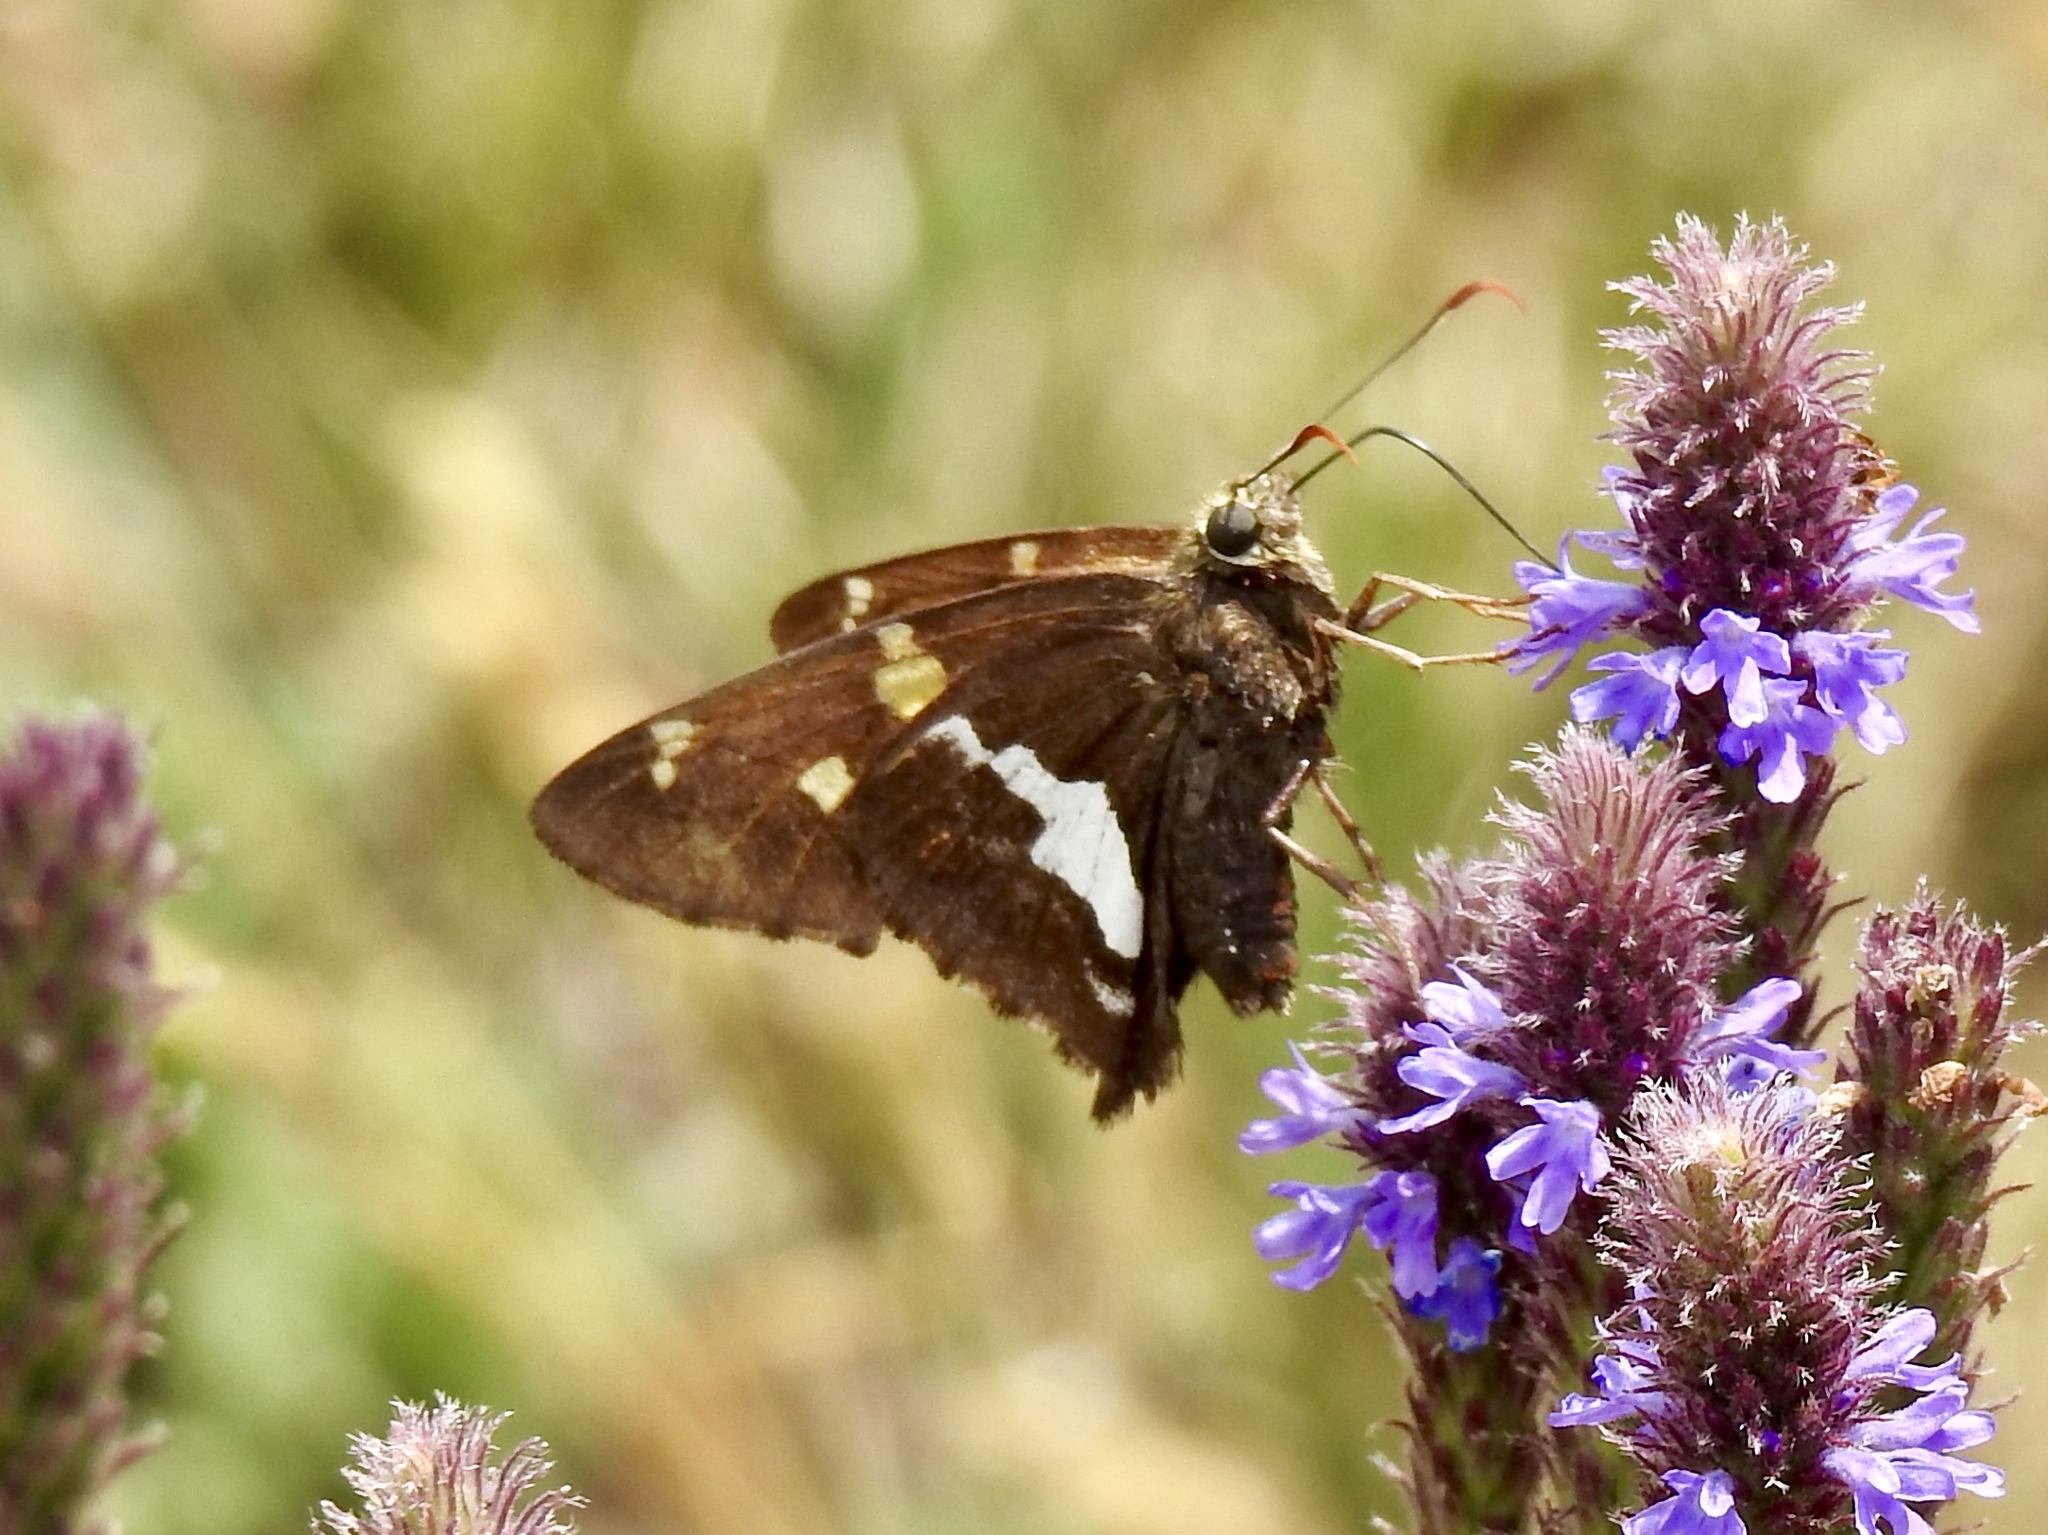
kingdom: Animalia
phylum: Arthropoda
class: Insecta
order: Lepidoptera
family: Hesperiidae
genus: Epargyreus
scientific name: Epargyreus clarus
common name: Silver-spotted skipper
